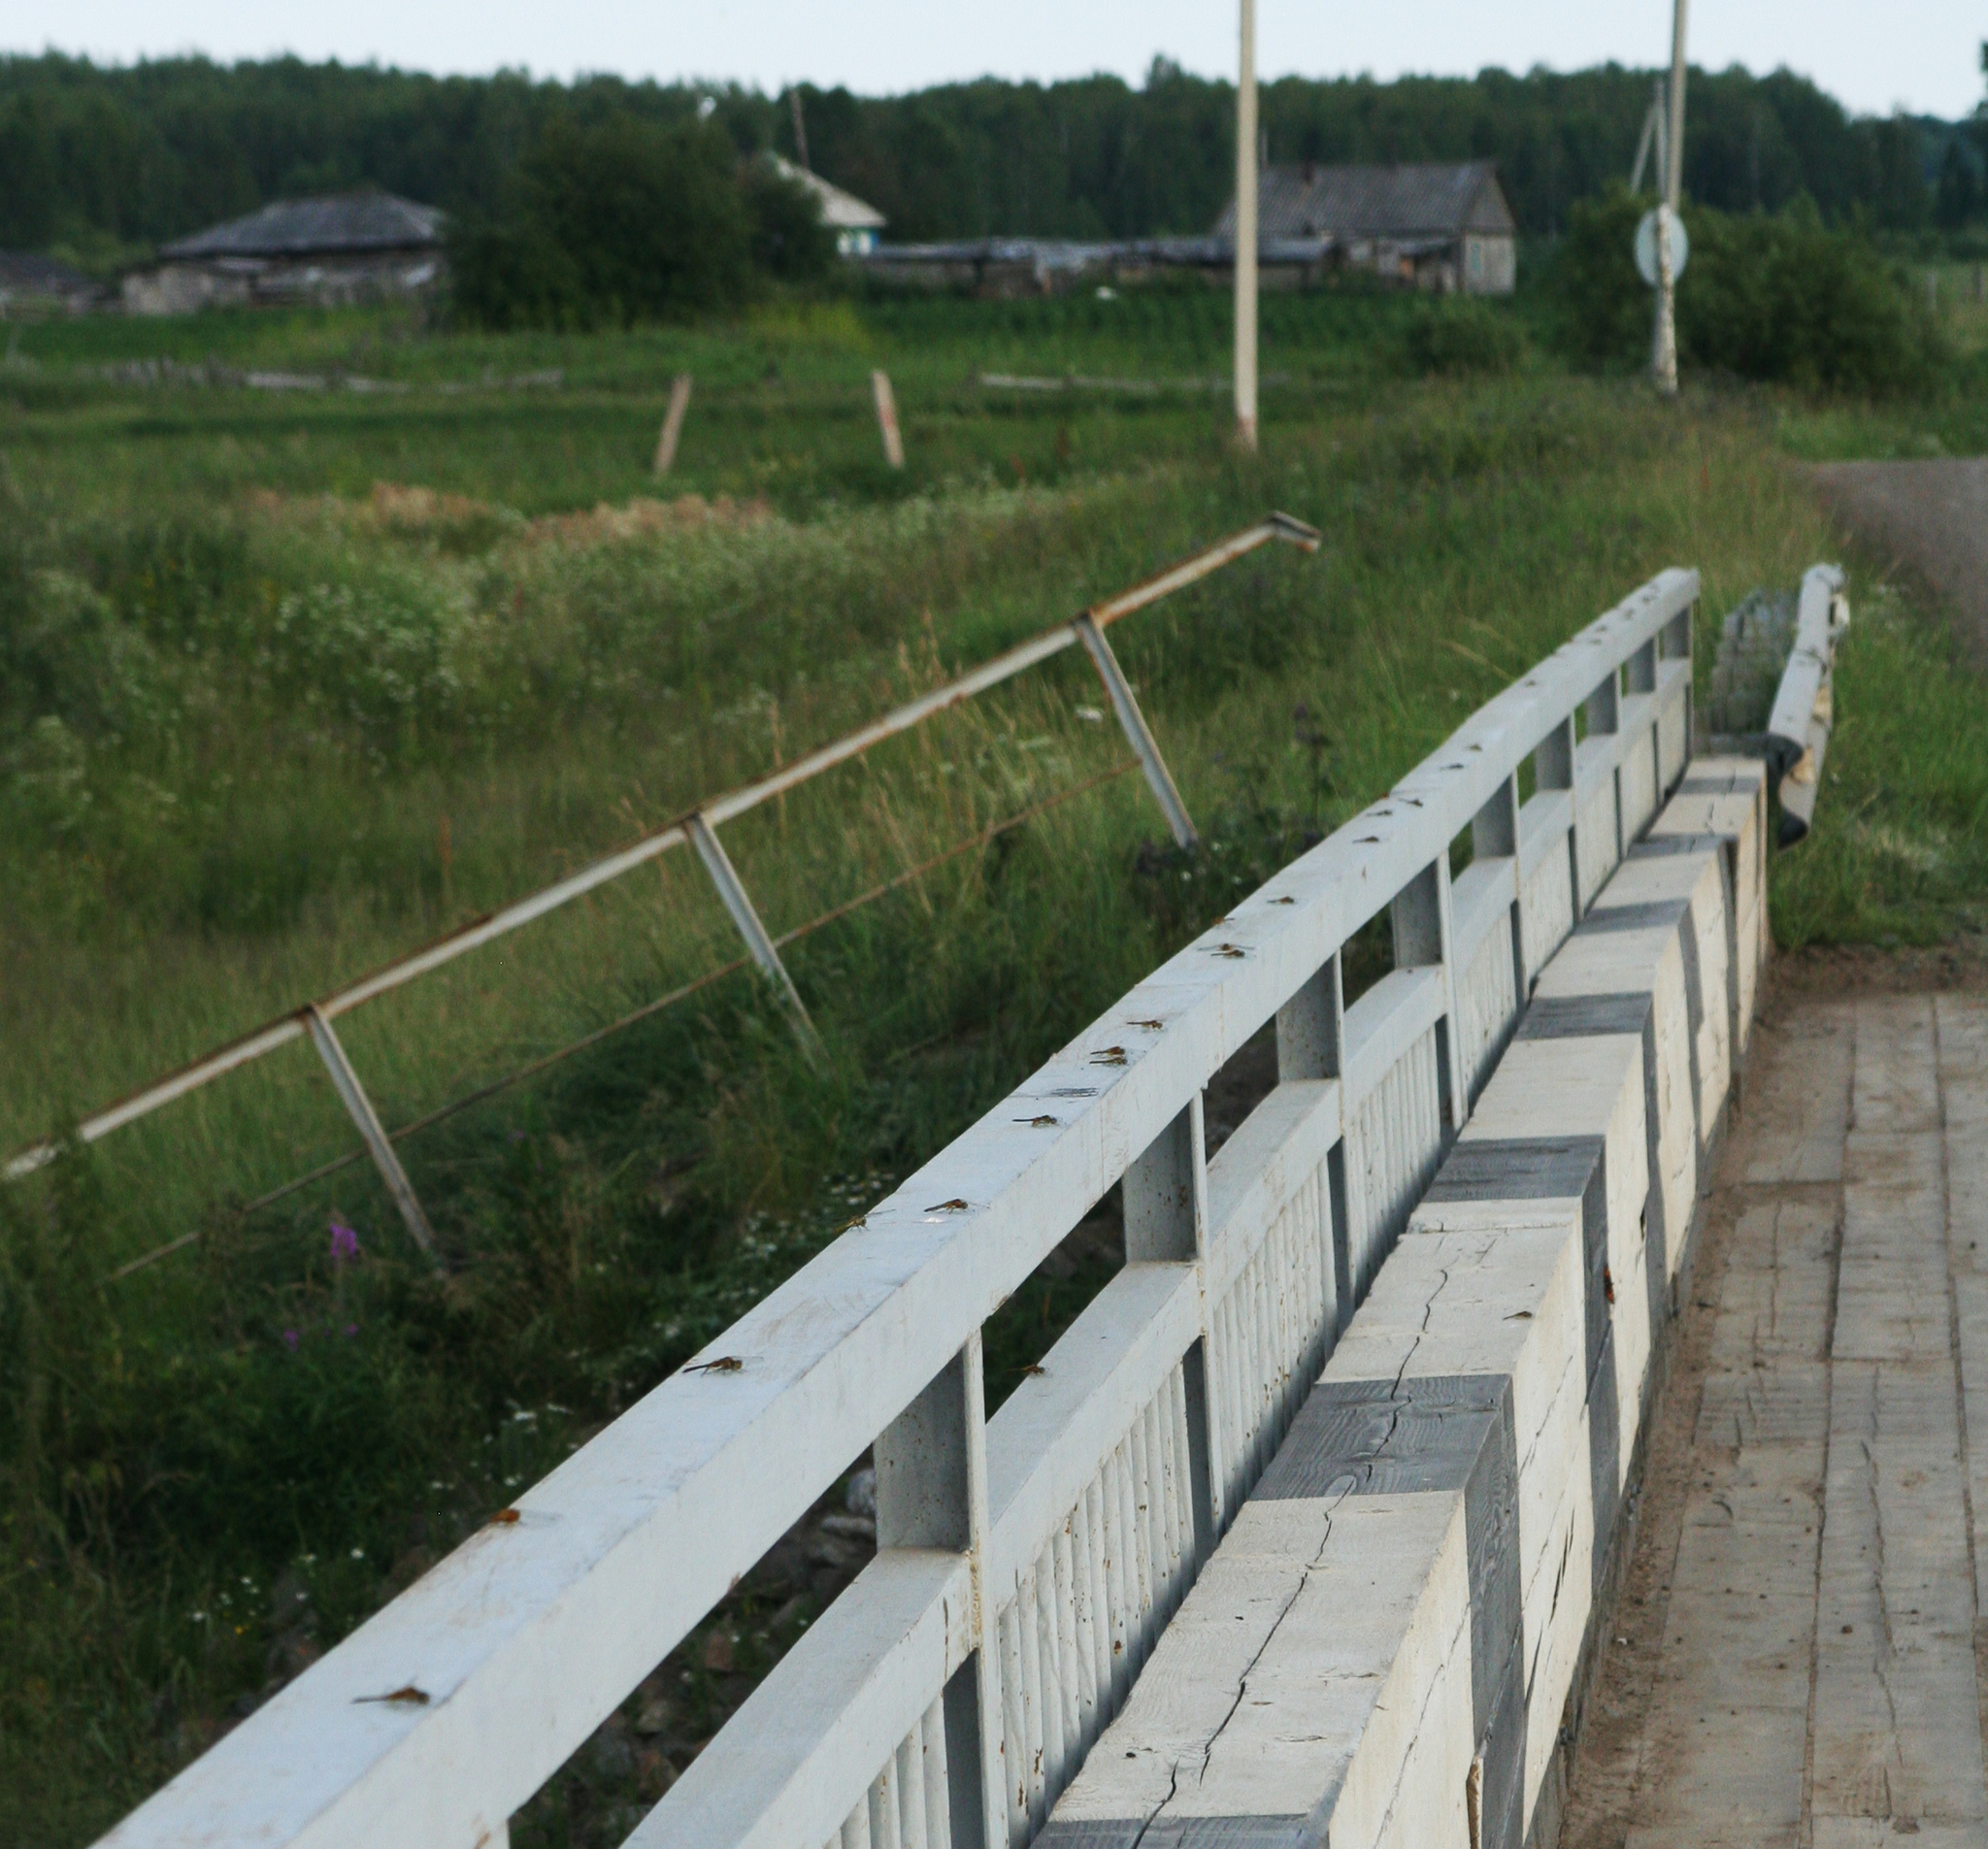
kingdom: Animalia
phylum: Arthropoda
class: Insecta
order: Odonata
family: Libellulidae
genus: Sympetrum
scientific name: Sympetrum flaveolum
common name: Yellow-winged darter
